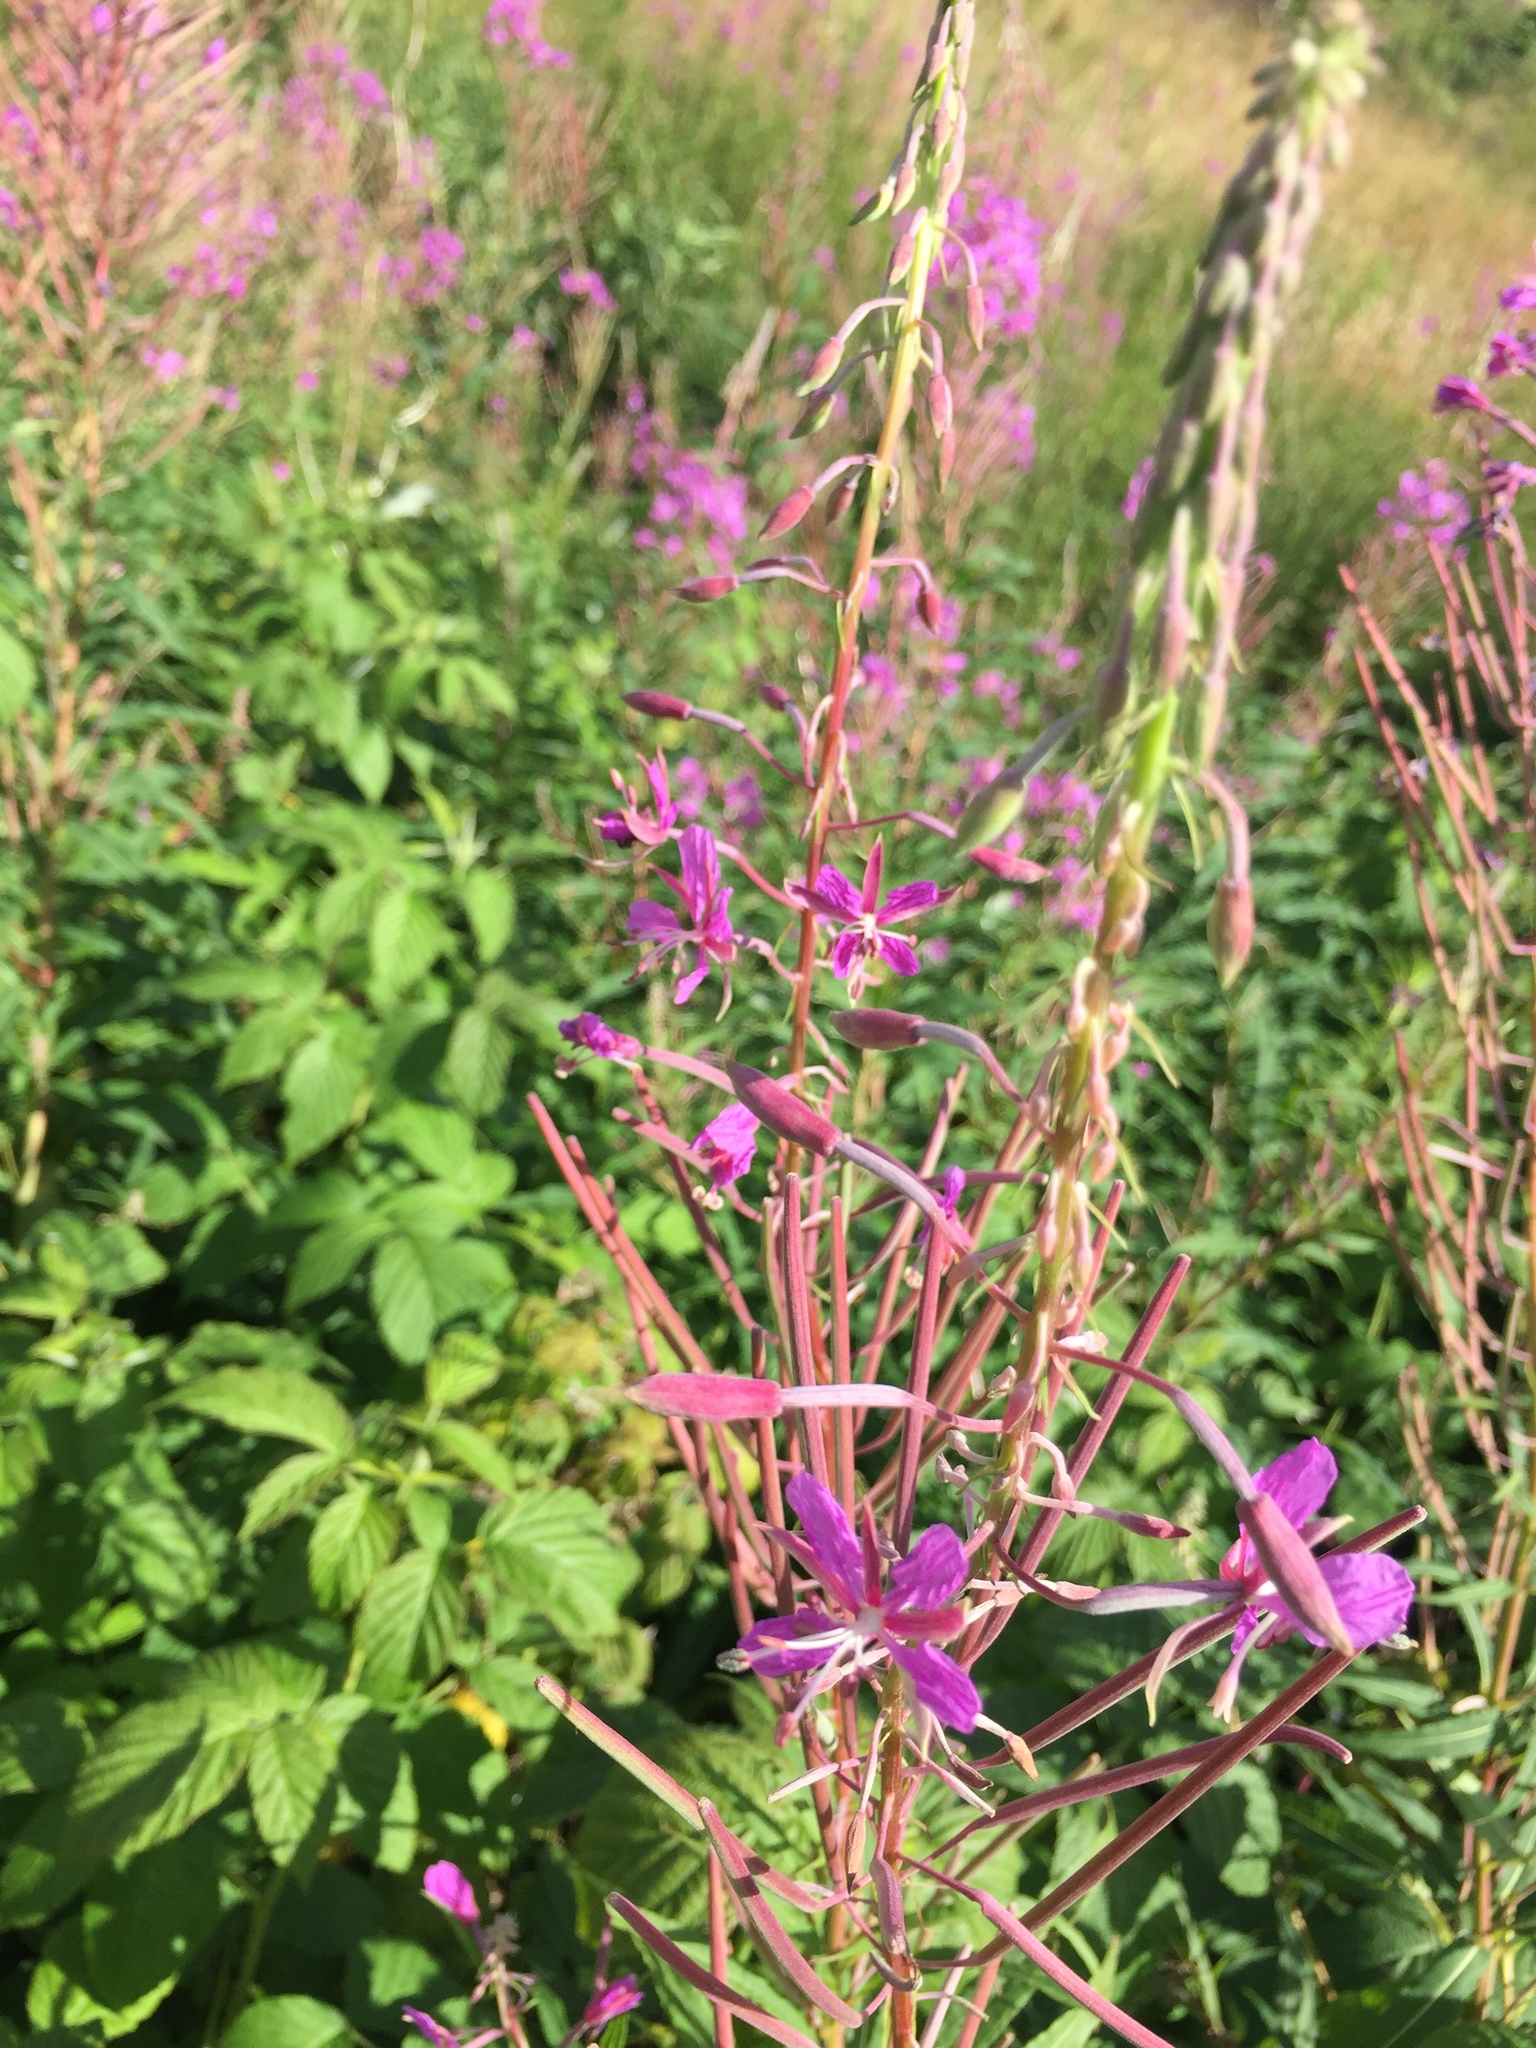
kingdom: Plantae
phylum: Tracheophyta
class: Magnoliopsida
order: Myrtales
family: Onagraceae
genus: Chamaenerion
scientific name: Chamaenerion angustifolium
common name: Fireweed
